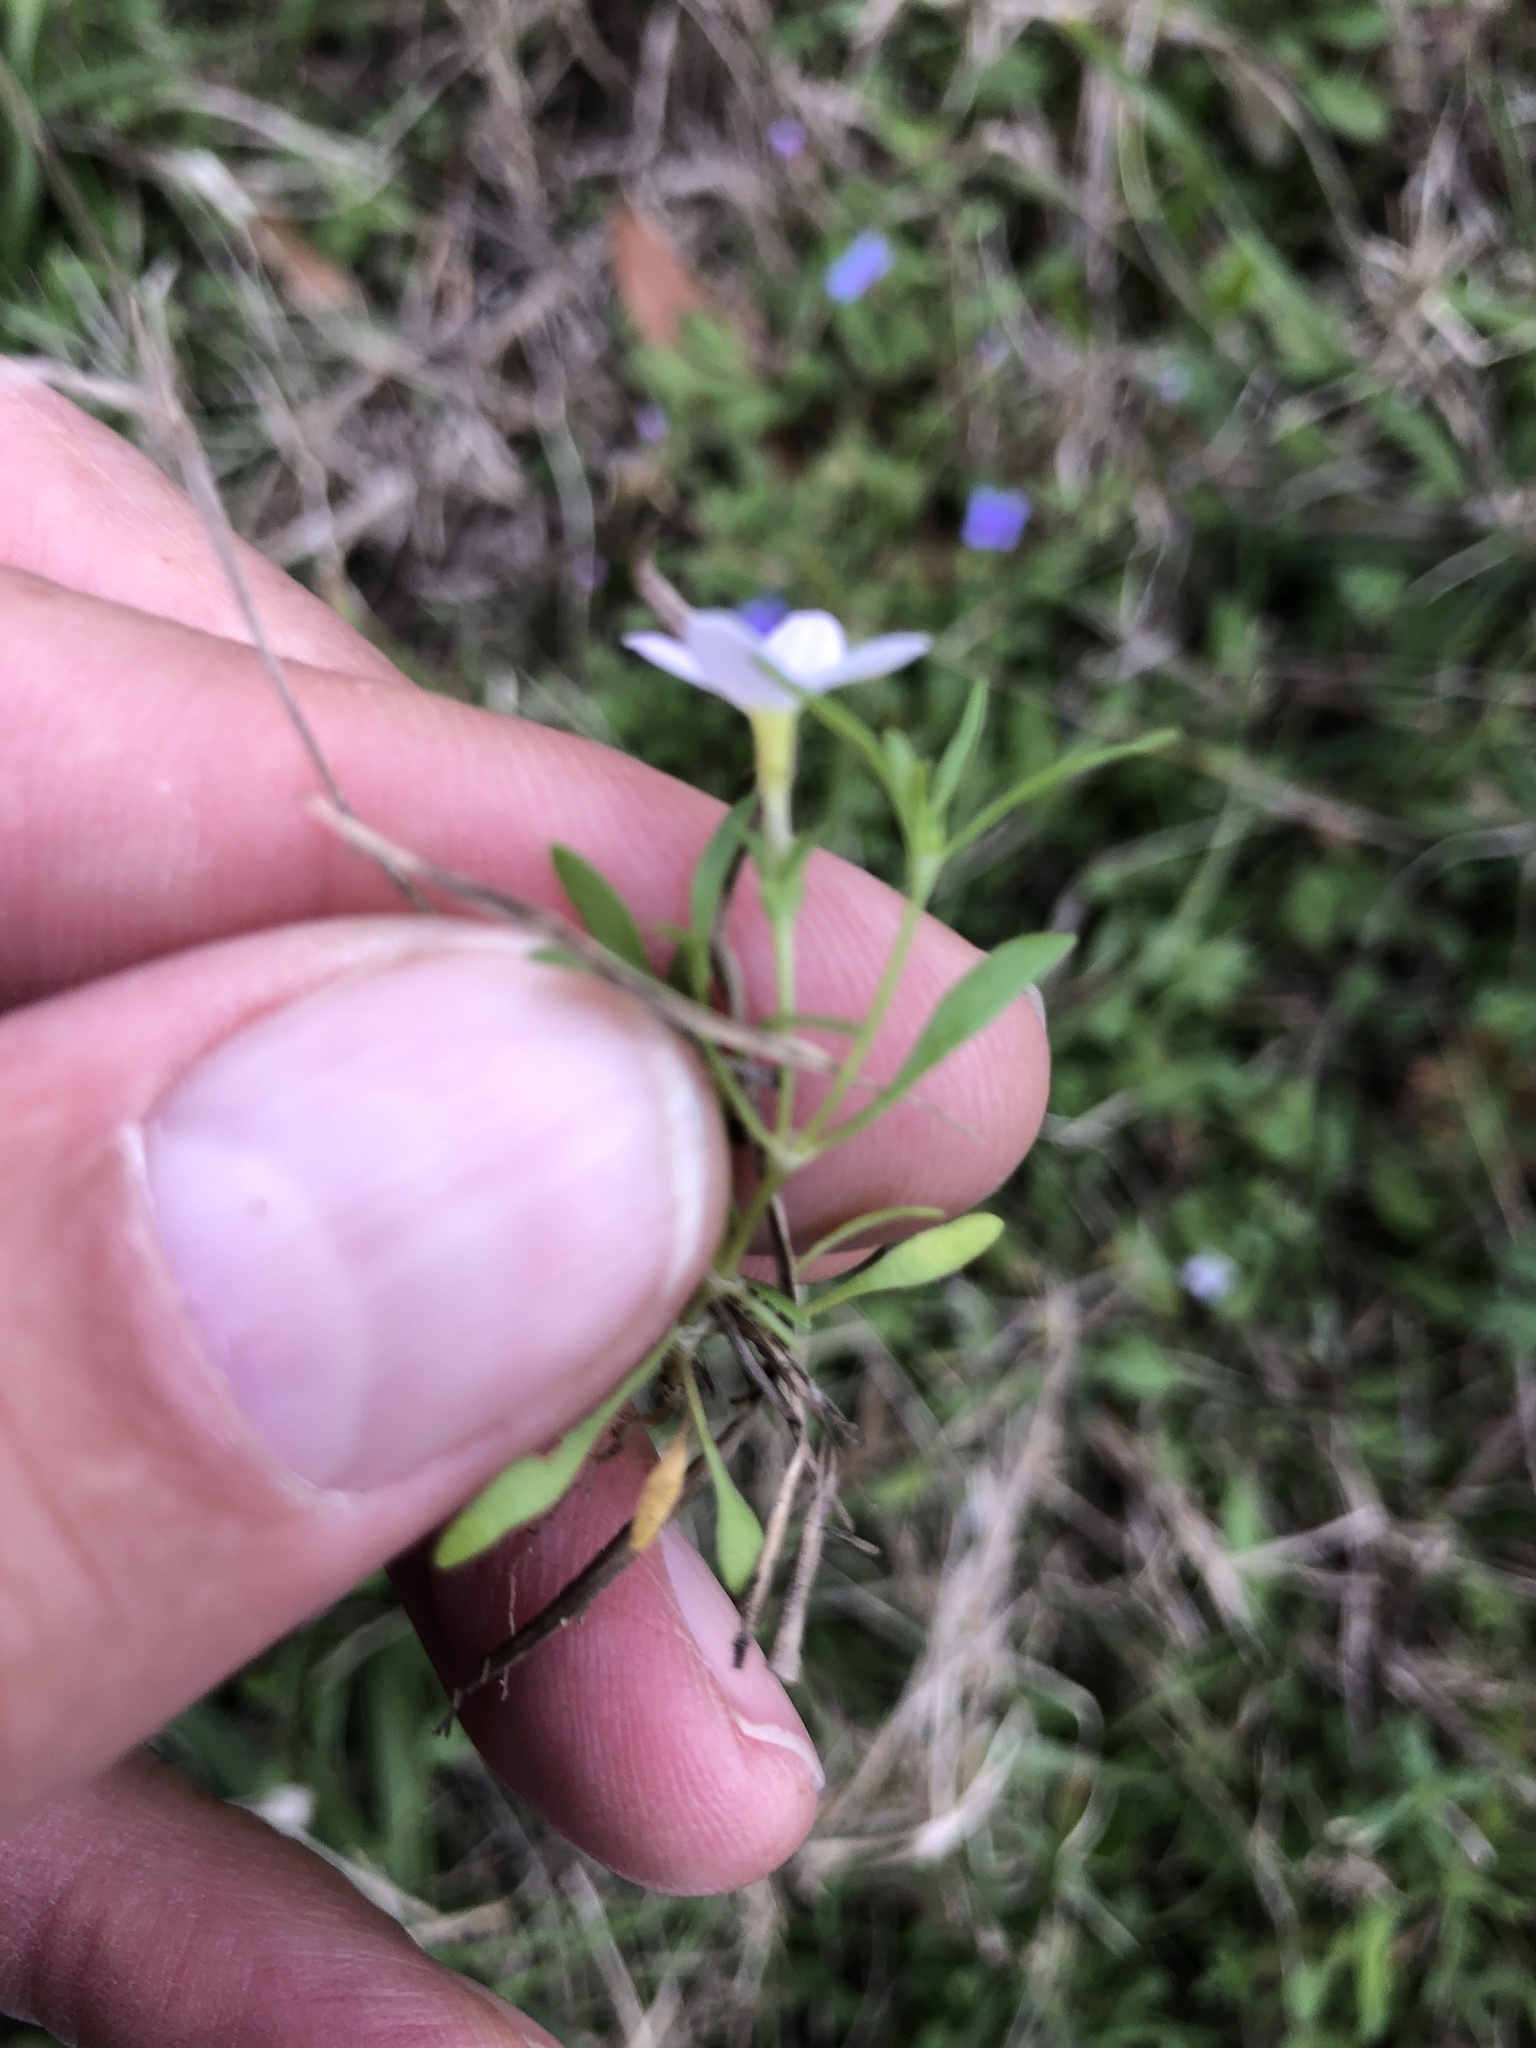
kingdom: Plantae
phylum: Tracheophyta
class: Magnoliopsida
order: Gentianales
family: Rubiaceae
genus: Houstonia
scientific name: Houstonia rosea
